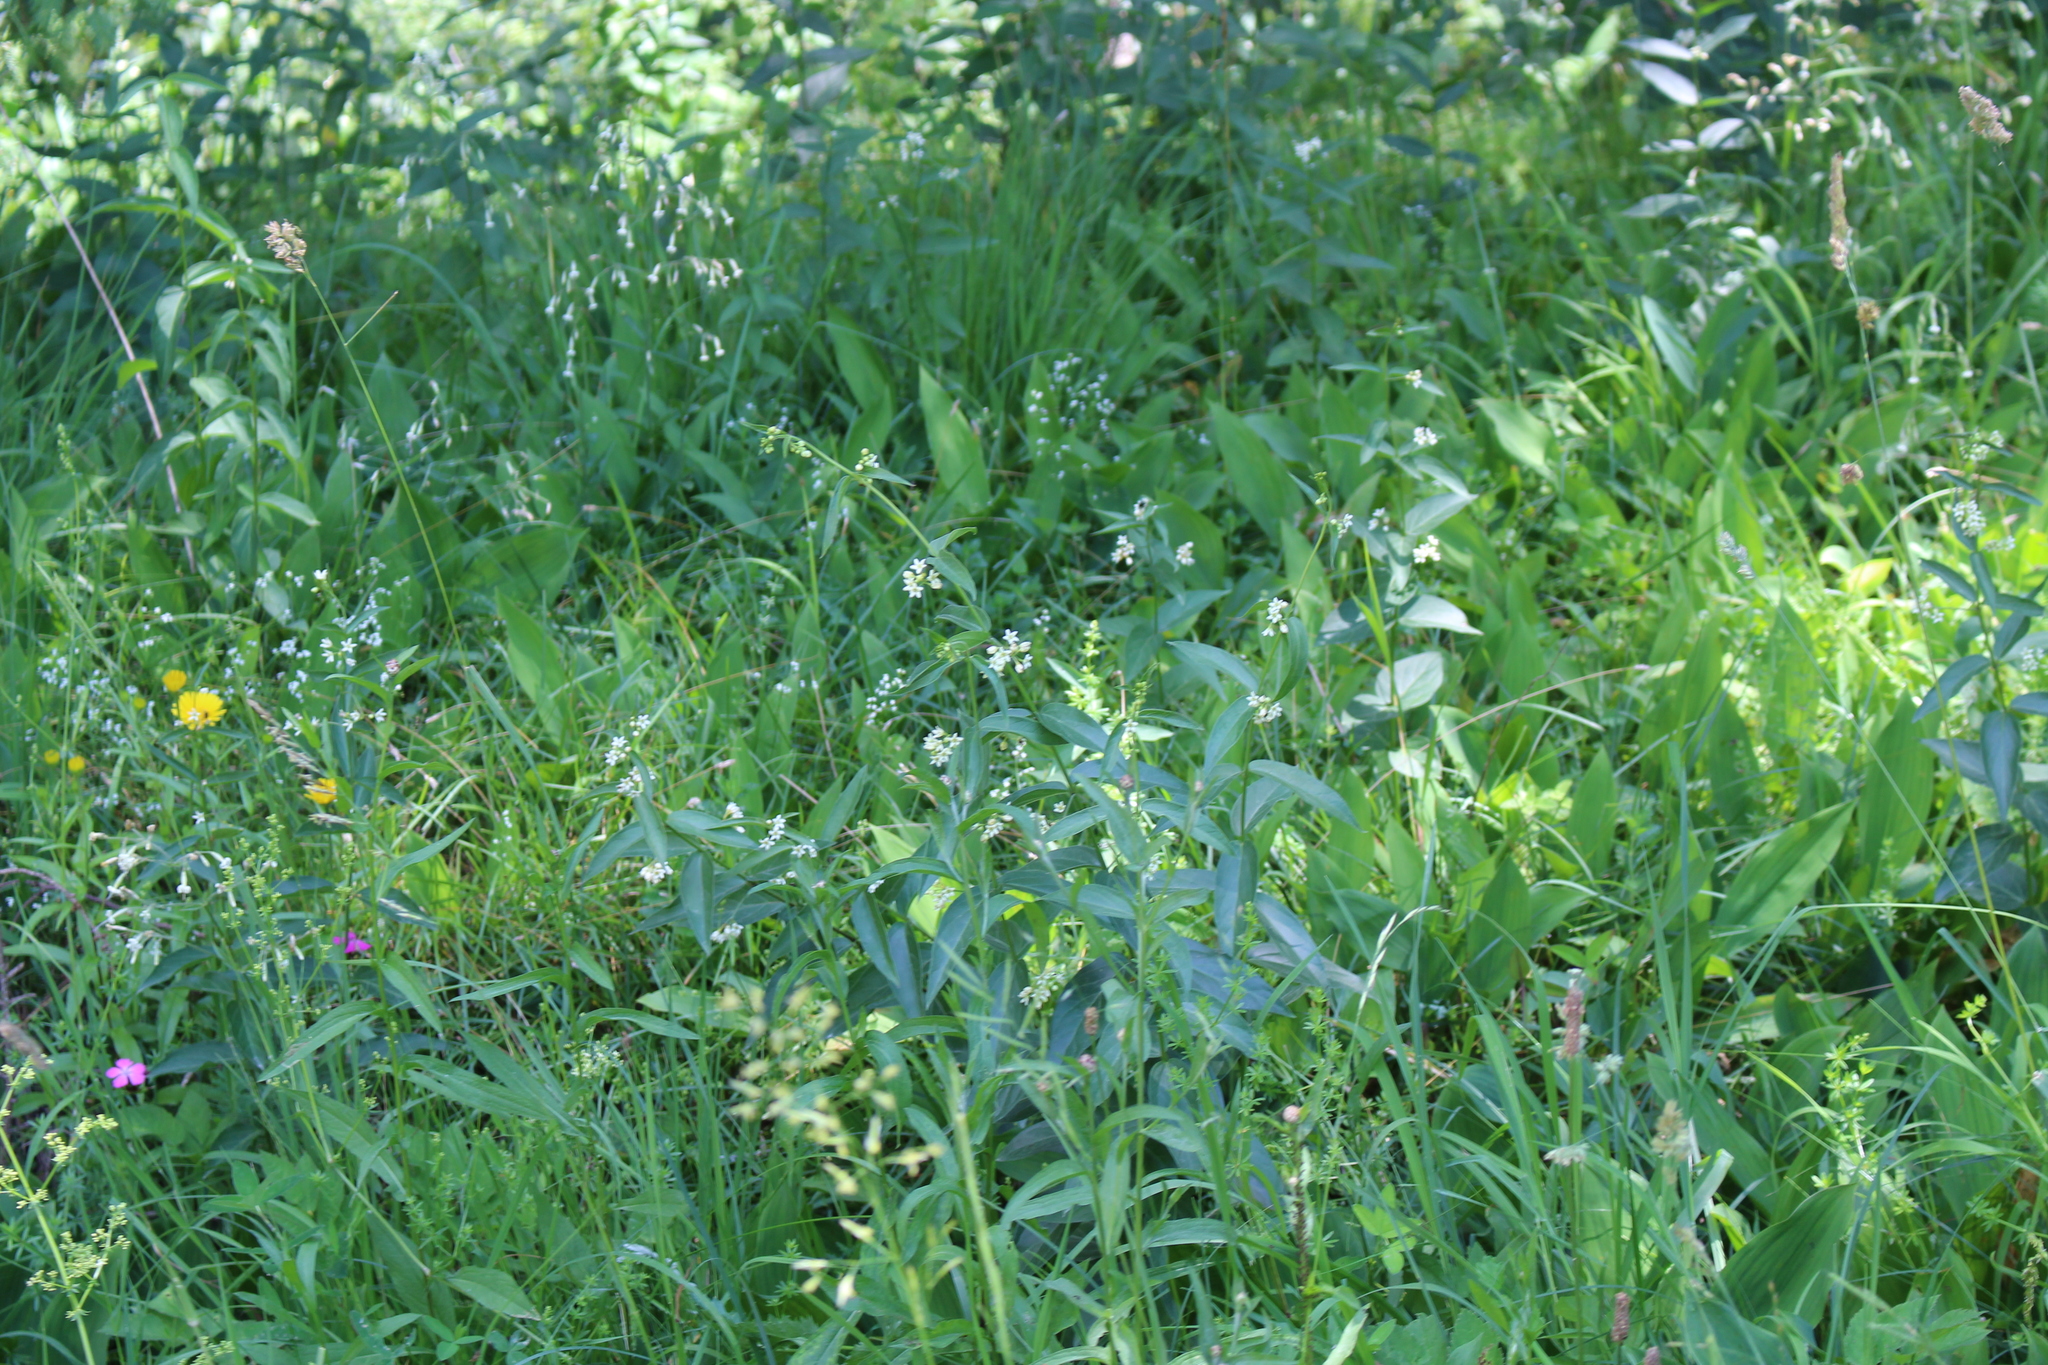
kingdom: Plantae
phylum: Tracheophyta
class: Magnoliopsida
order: Gentianales
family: Apocynaceae
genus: Vincetoxicum
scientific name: Vincetoxicum hirundinaria
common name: White swallowwort
